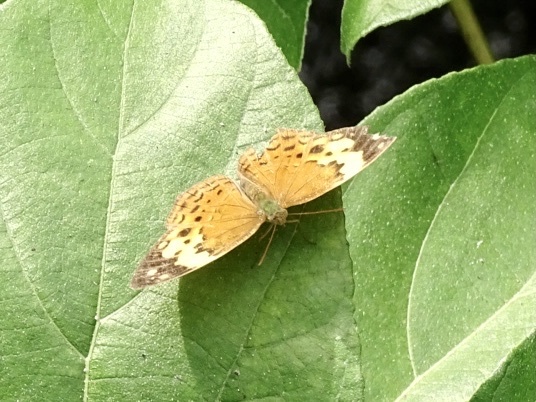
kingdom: Animalia
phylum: Arthropoda
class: Insecta
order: Lepidoptera
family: Nymphalidae
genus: Cupha
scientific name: Cupha erymanthis
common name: Rustic
